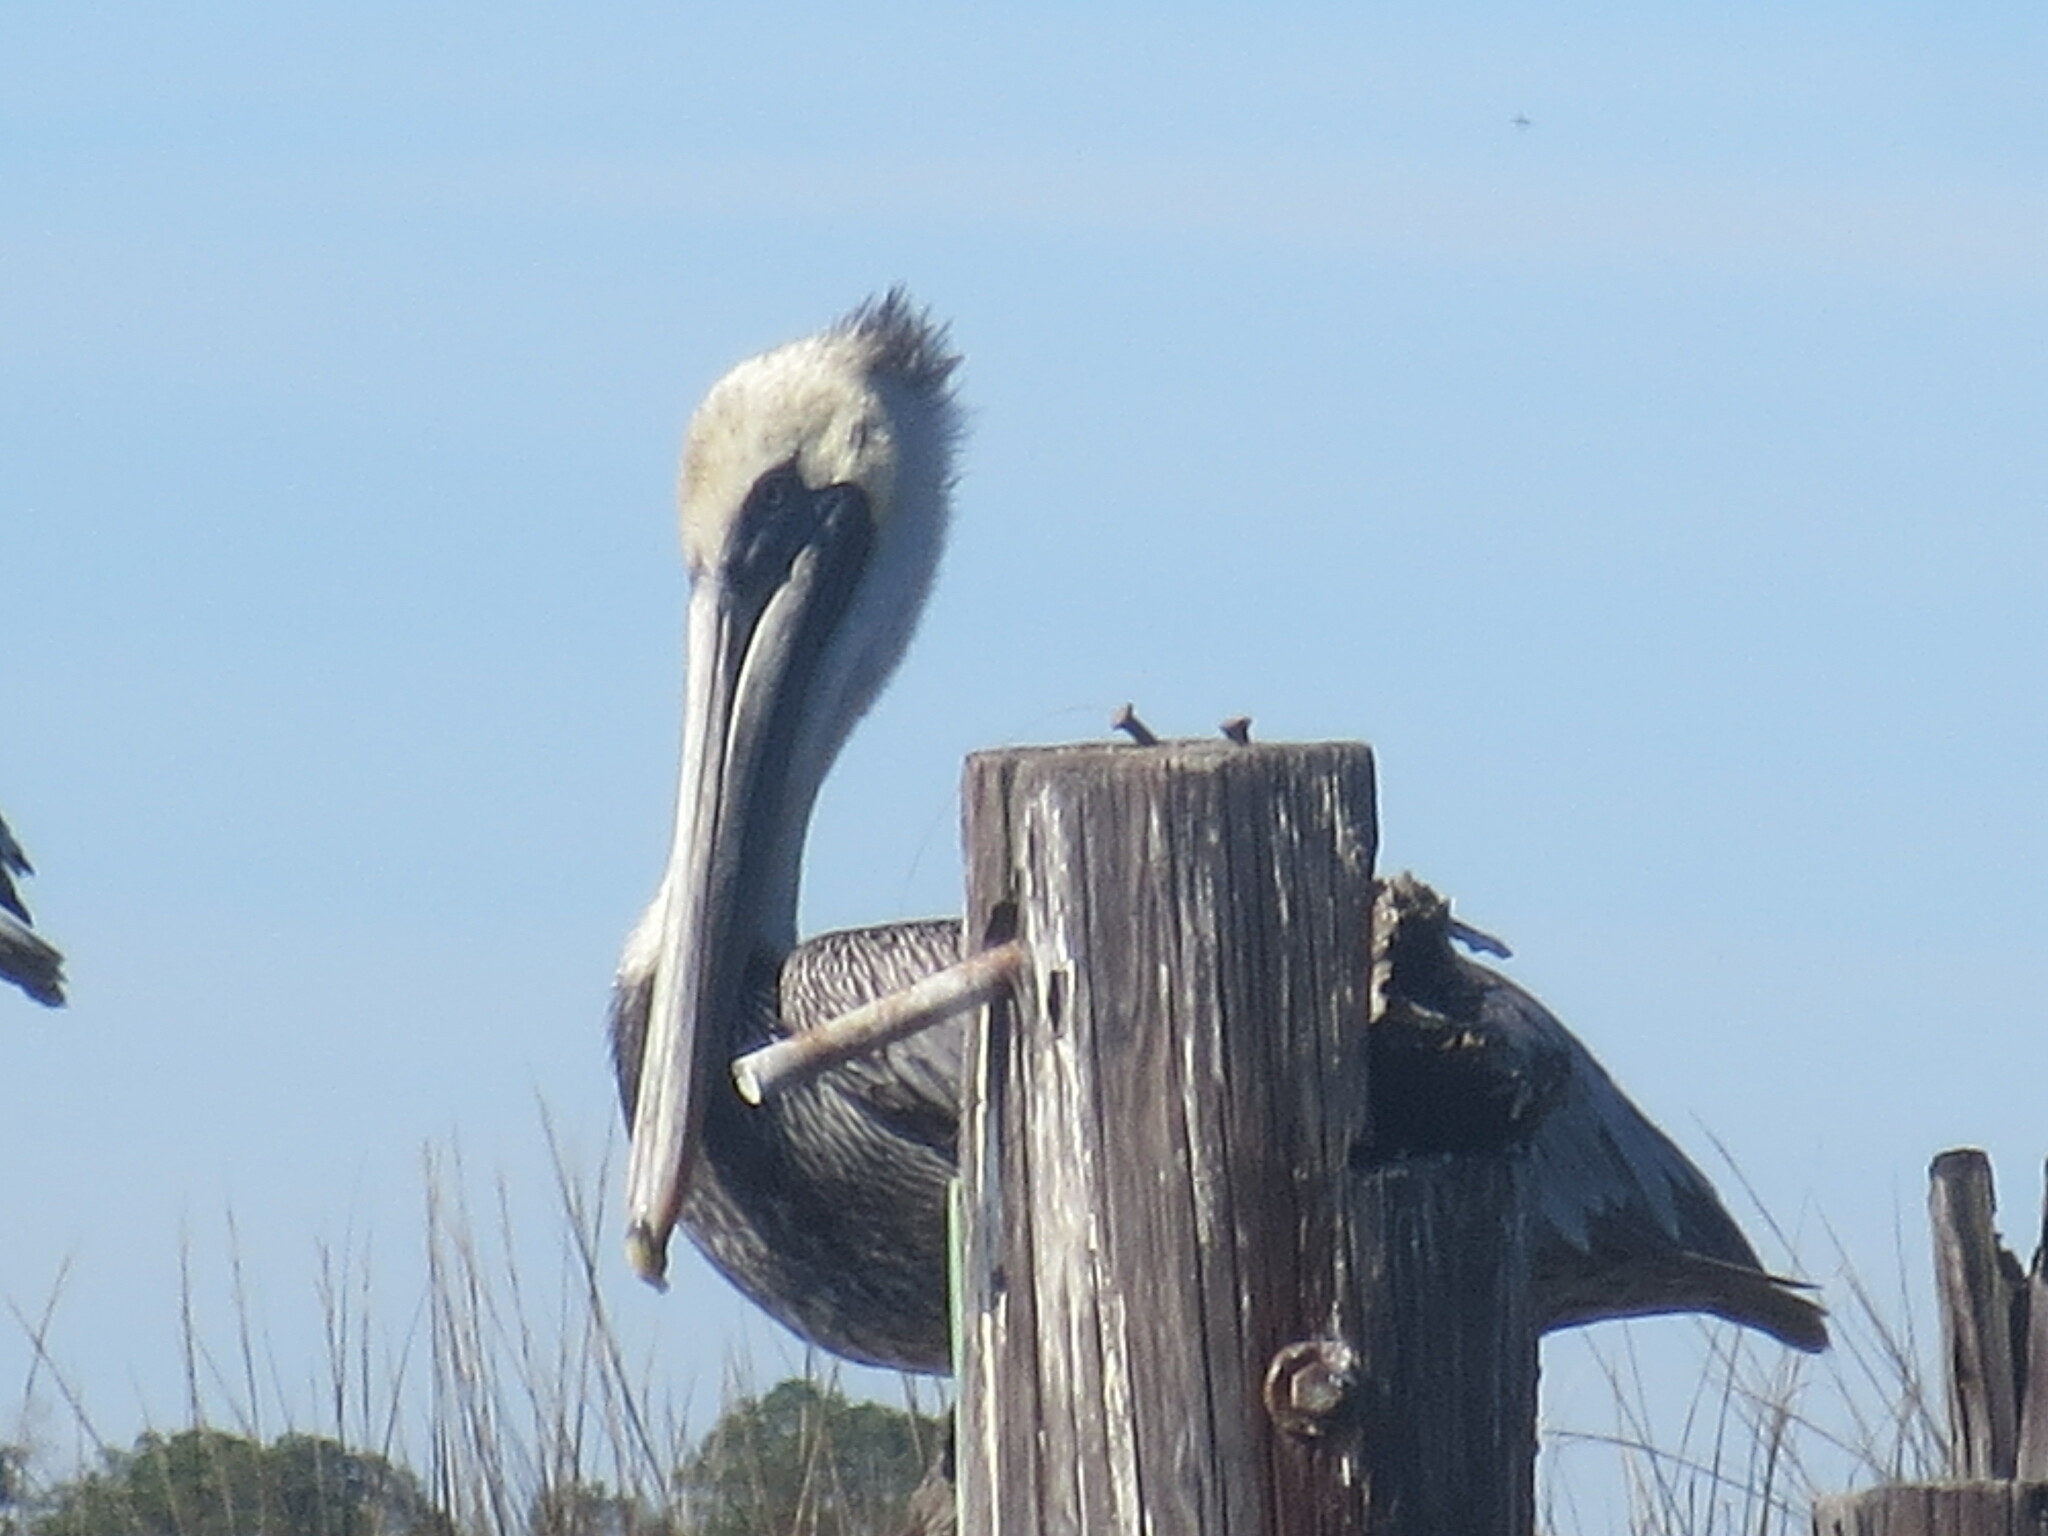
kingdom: Animalia
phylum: Chordata
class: Aves
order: Pelecaniformes
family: Pelecanidae
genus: Pelecanus
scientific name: Pelecanus occidentalis
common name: Brown pelican
